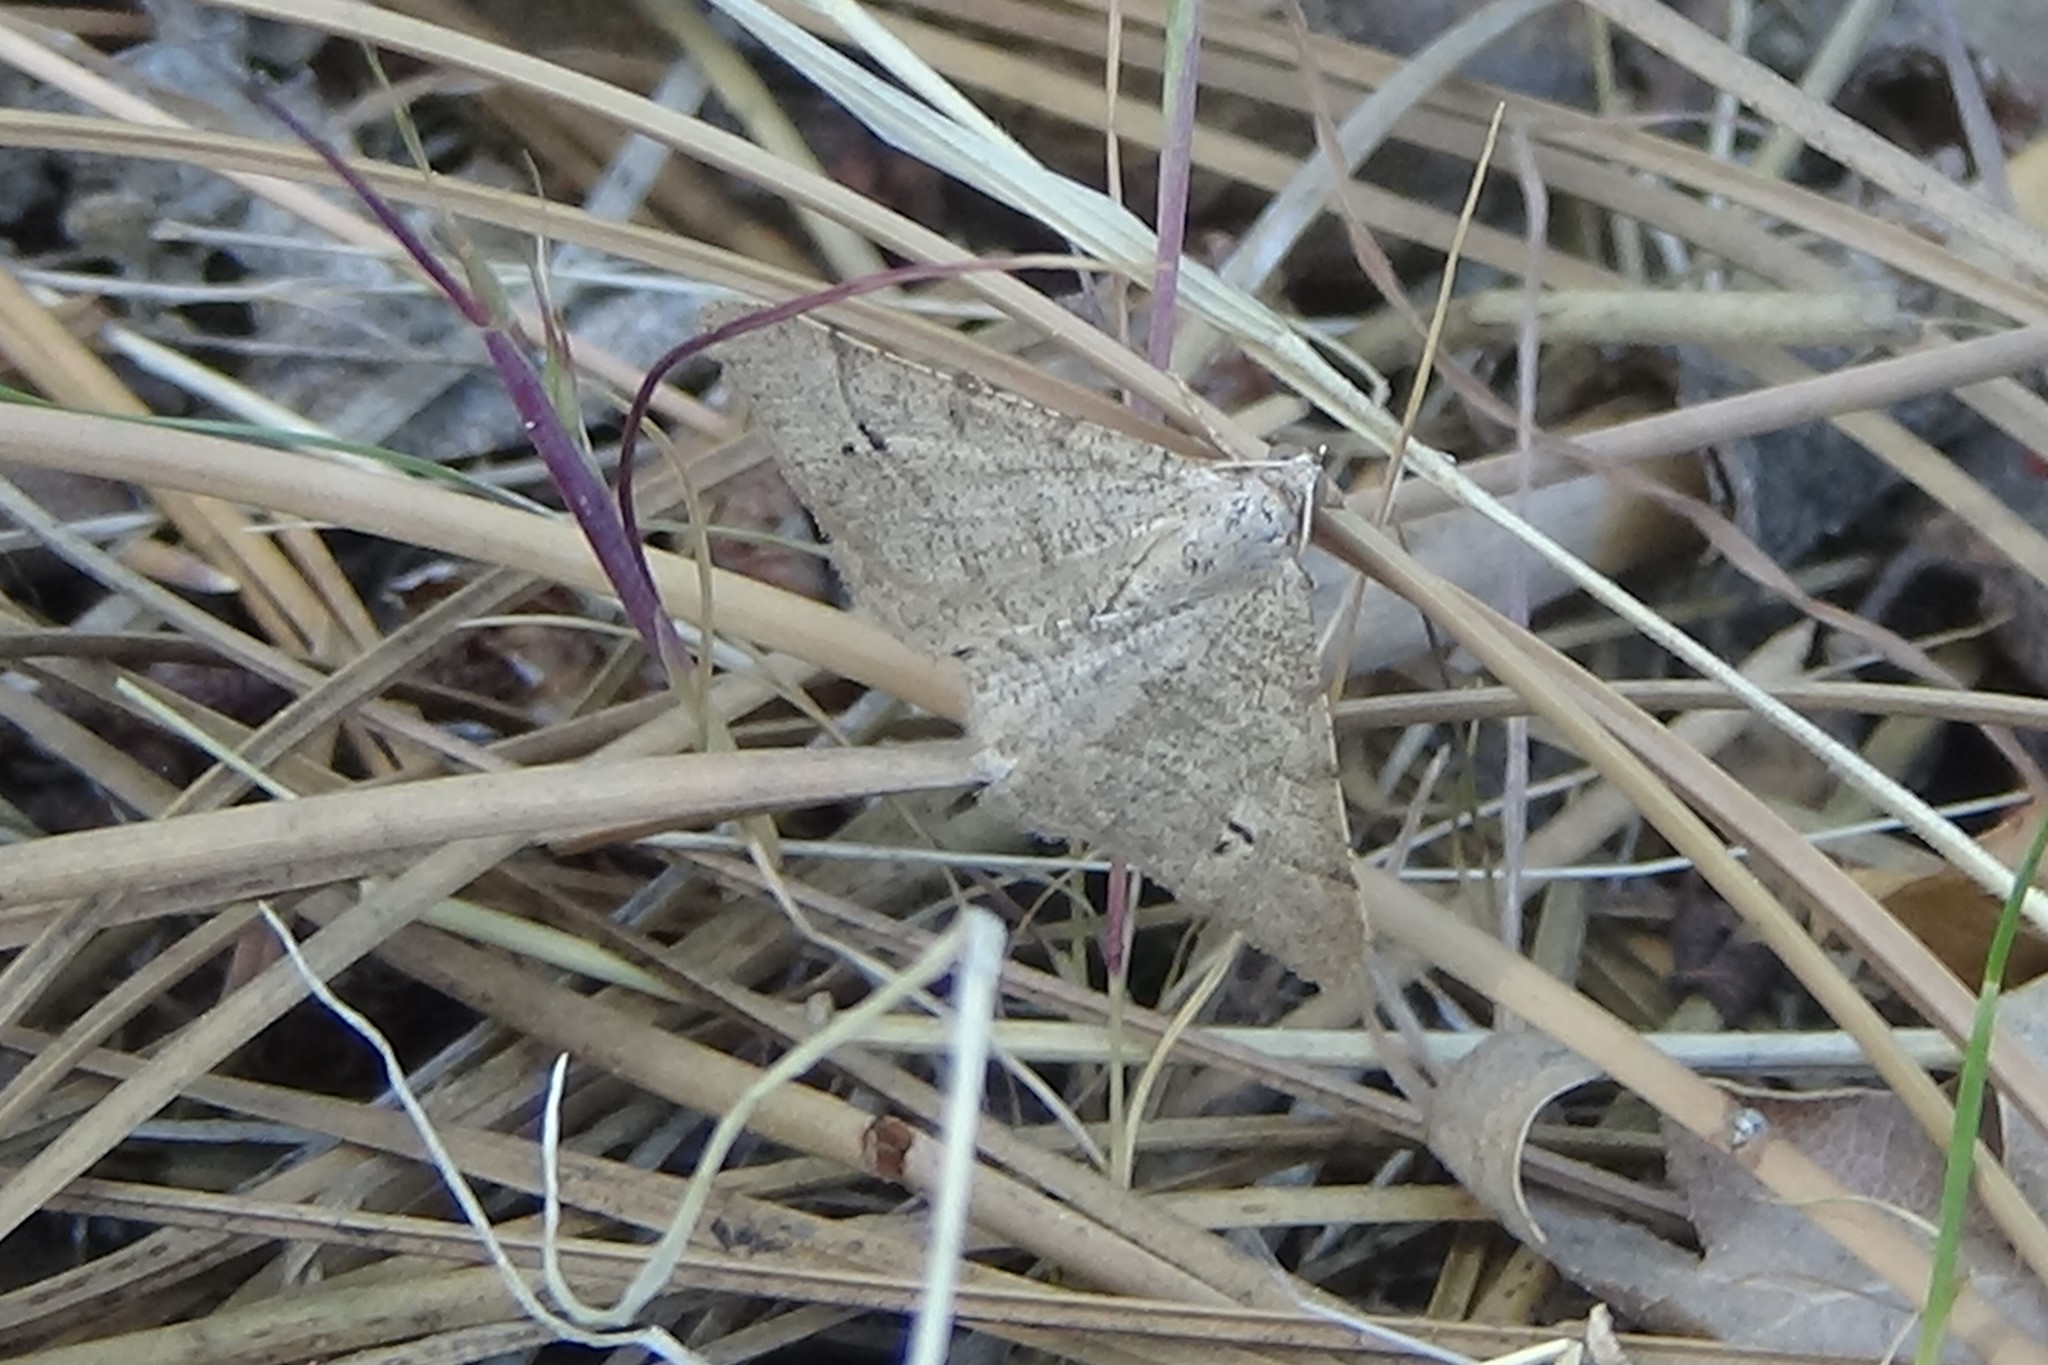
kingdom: Animalia
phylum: Arthropoda
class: Insecta
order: Lepidoptera
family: Geometridae
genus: Digrammia
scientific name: Digrammia muscariata
